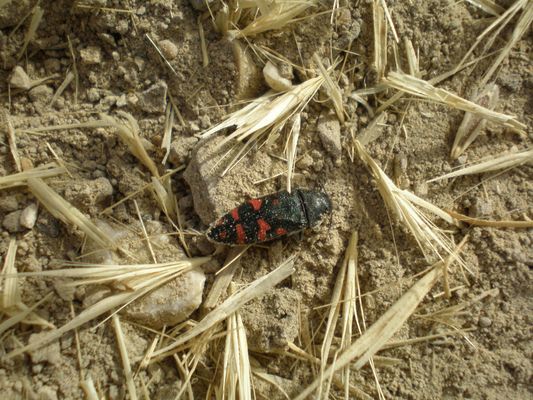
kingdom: Animalia
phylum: Arthropoda
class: Insecta
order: Coleoptera
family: Buprestidae
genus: Acmaeodera
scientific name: Acmaeodera pulchra
